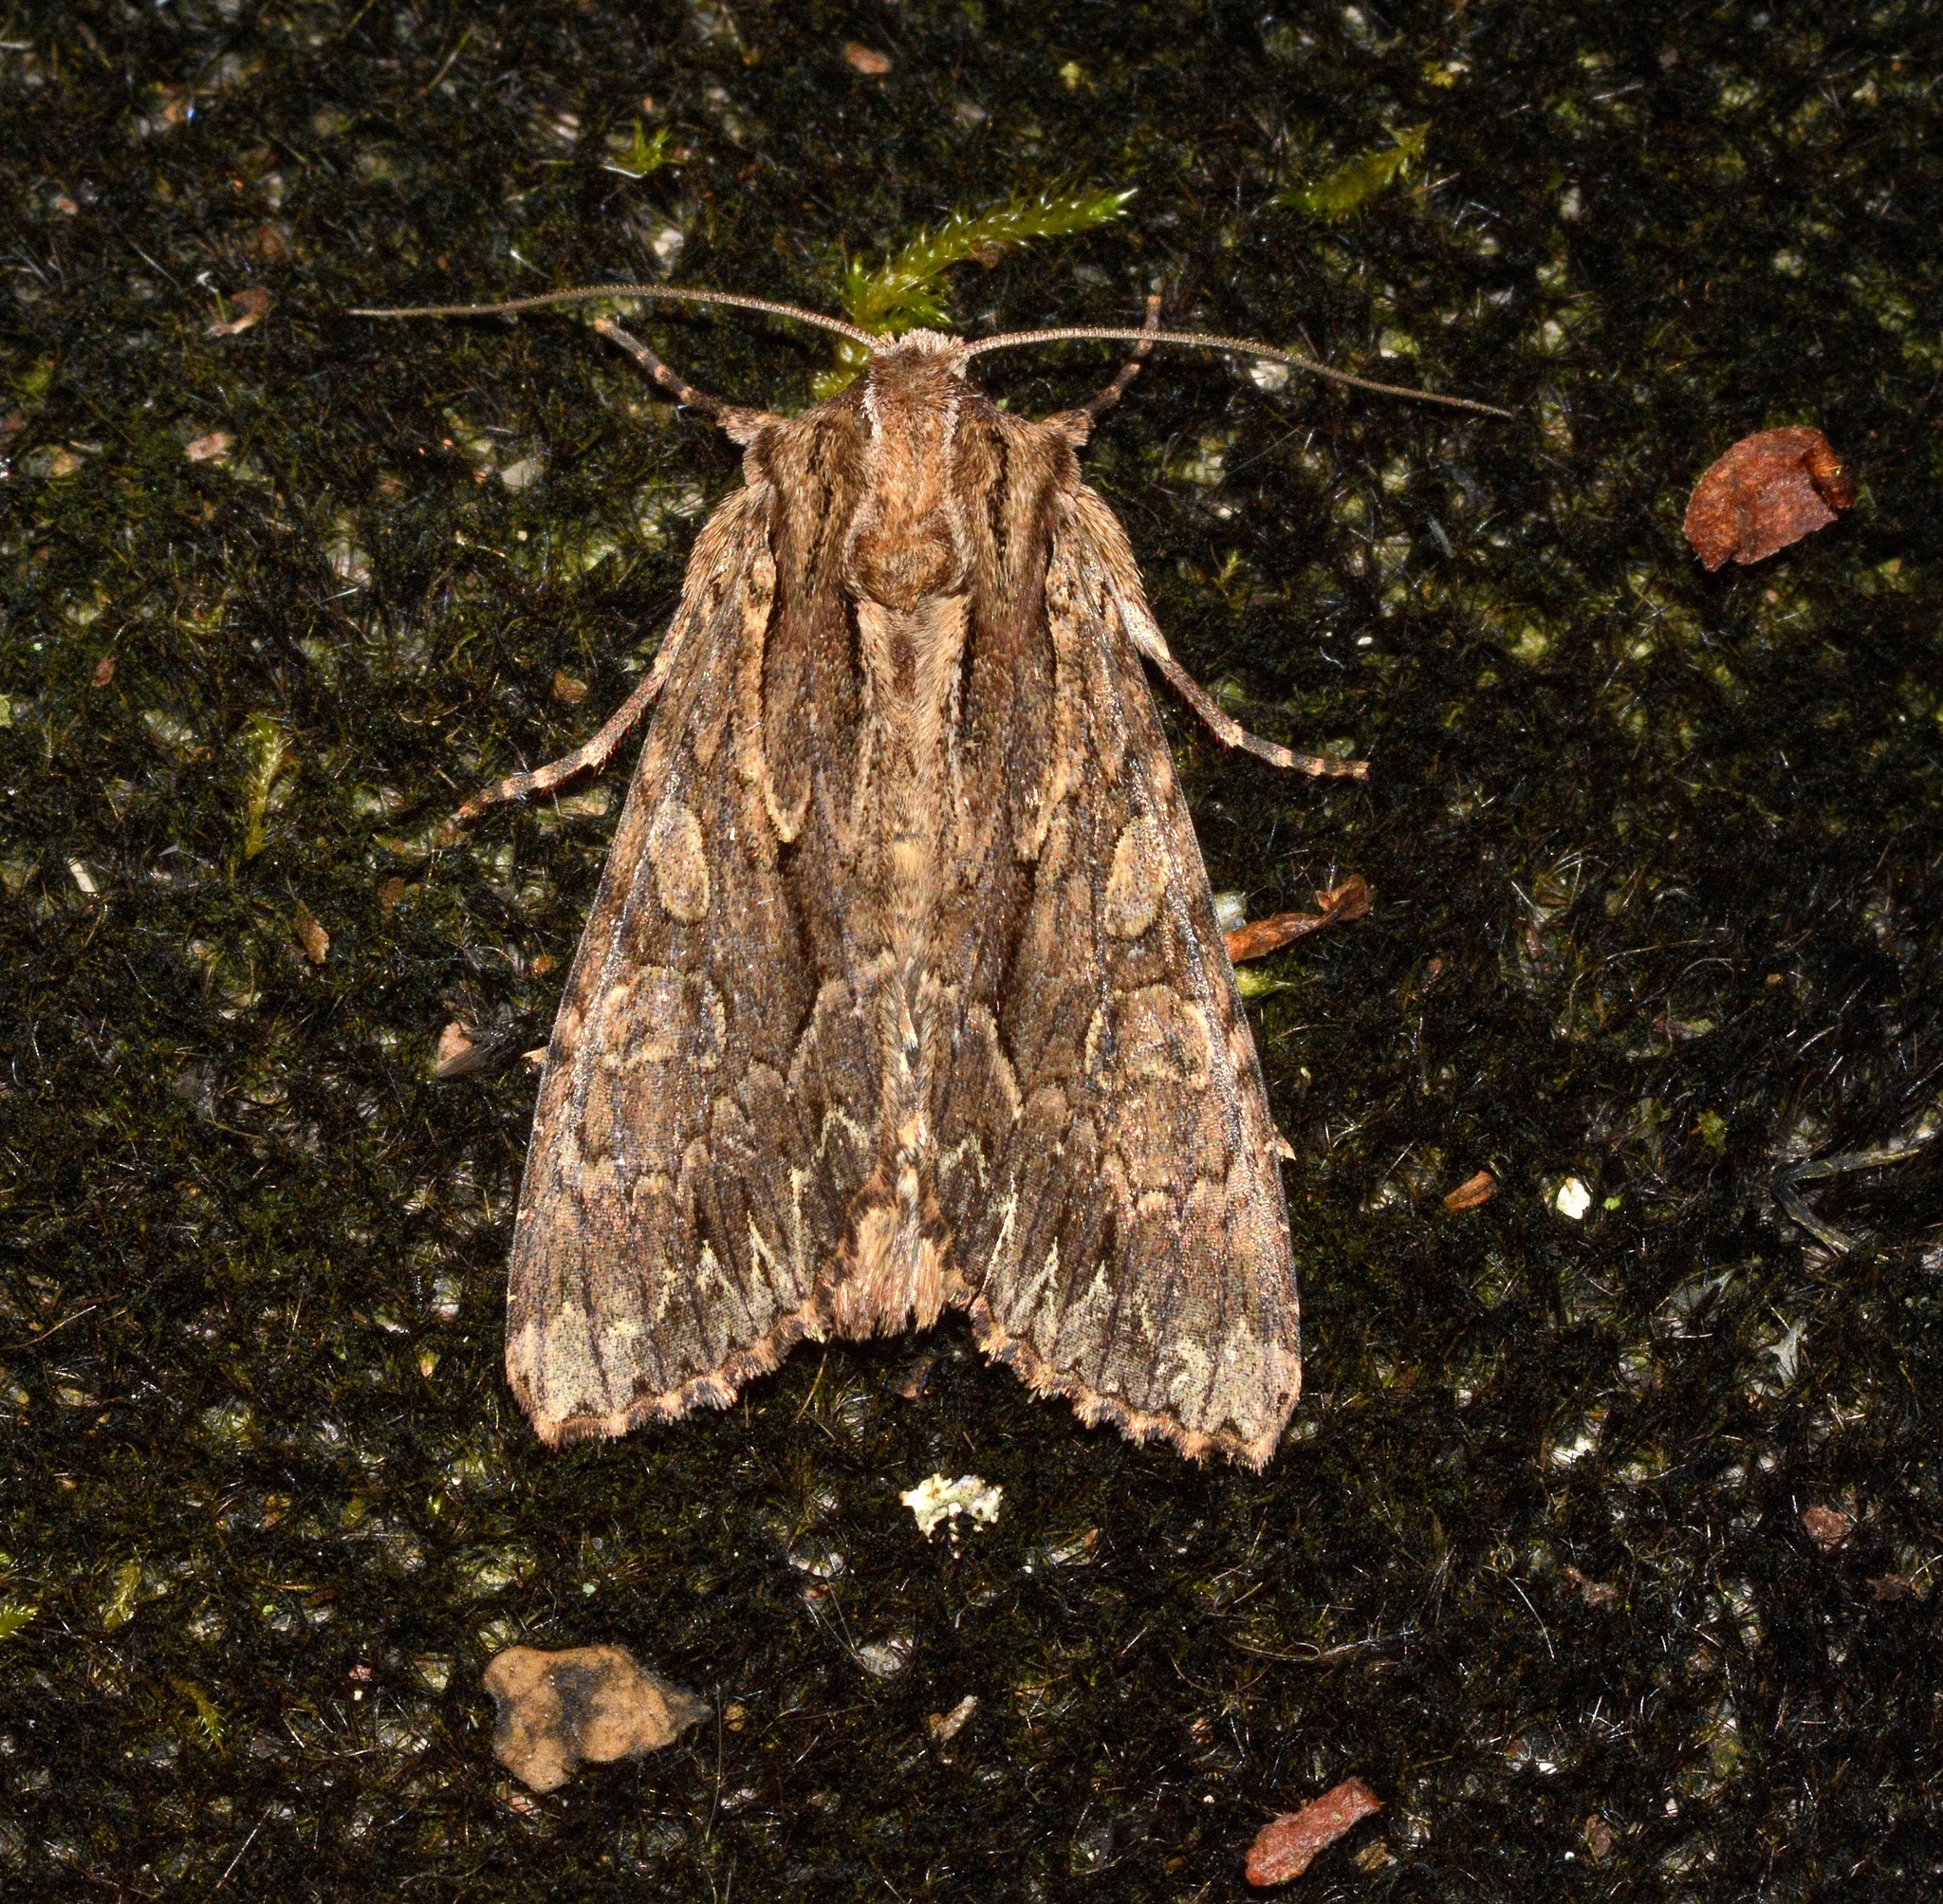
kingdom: Animalia
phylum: Arthropoda
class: Insecta
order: Lepidoptera
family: Noctuidae
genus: Apamea
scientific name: Apamea monoglypha
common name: Dark arches
